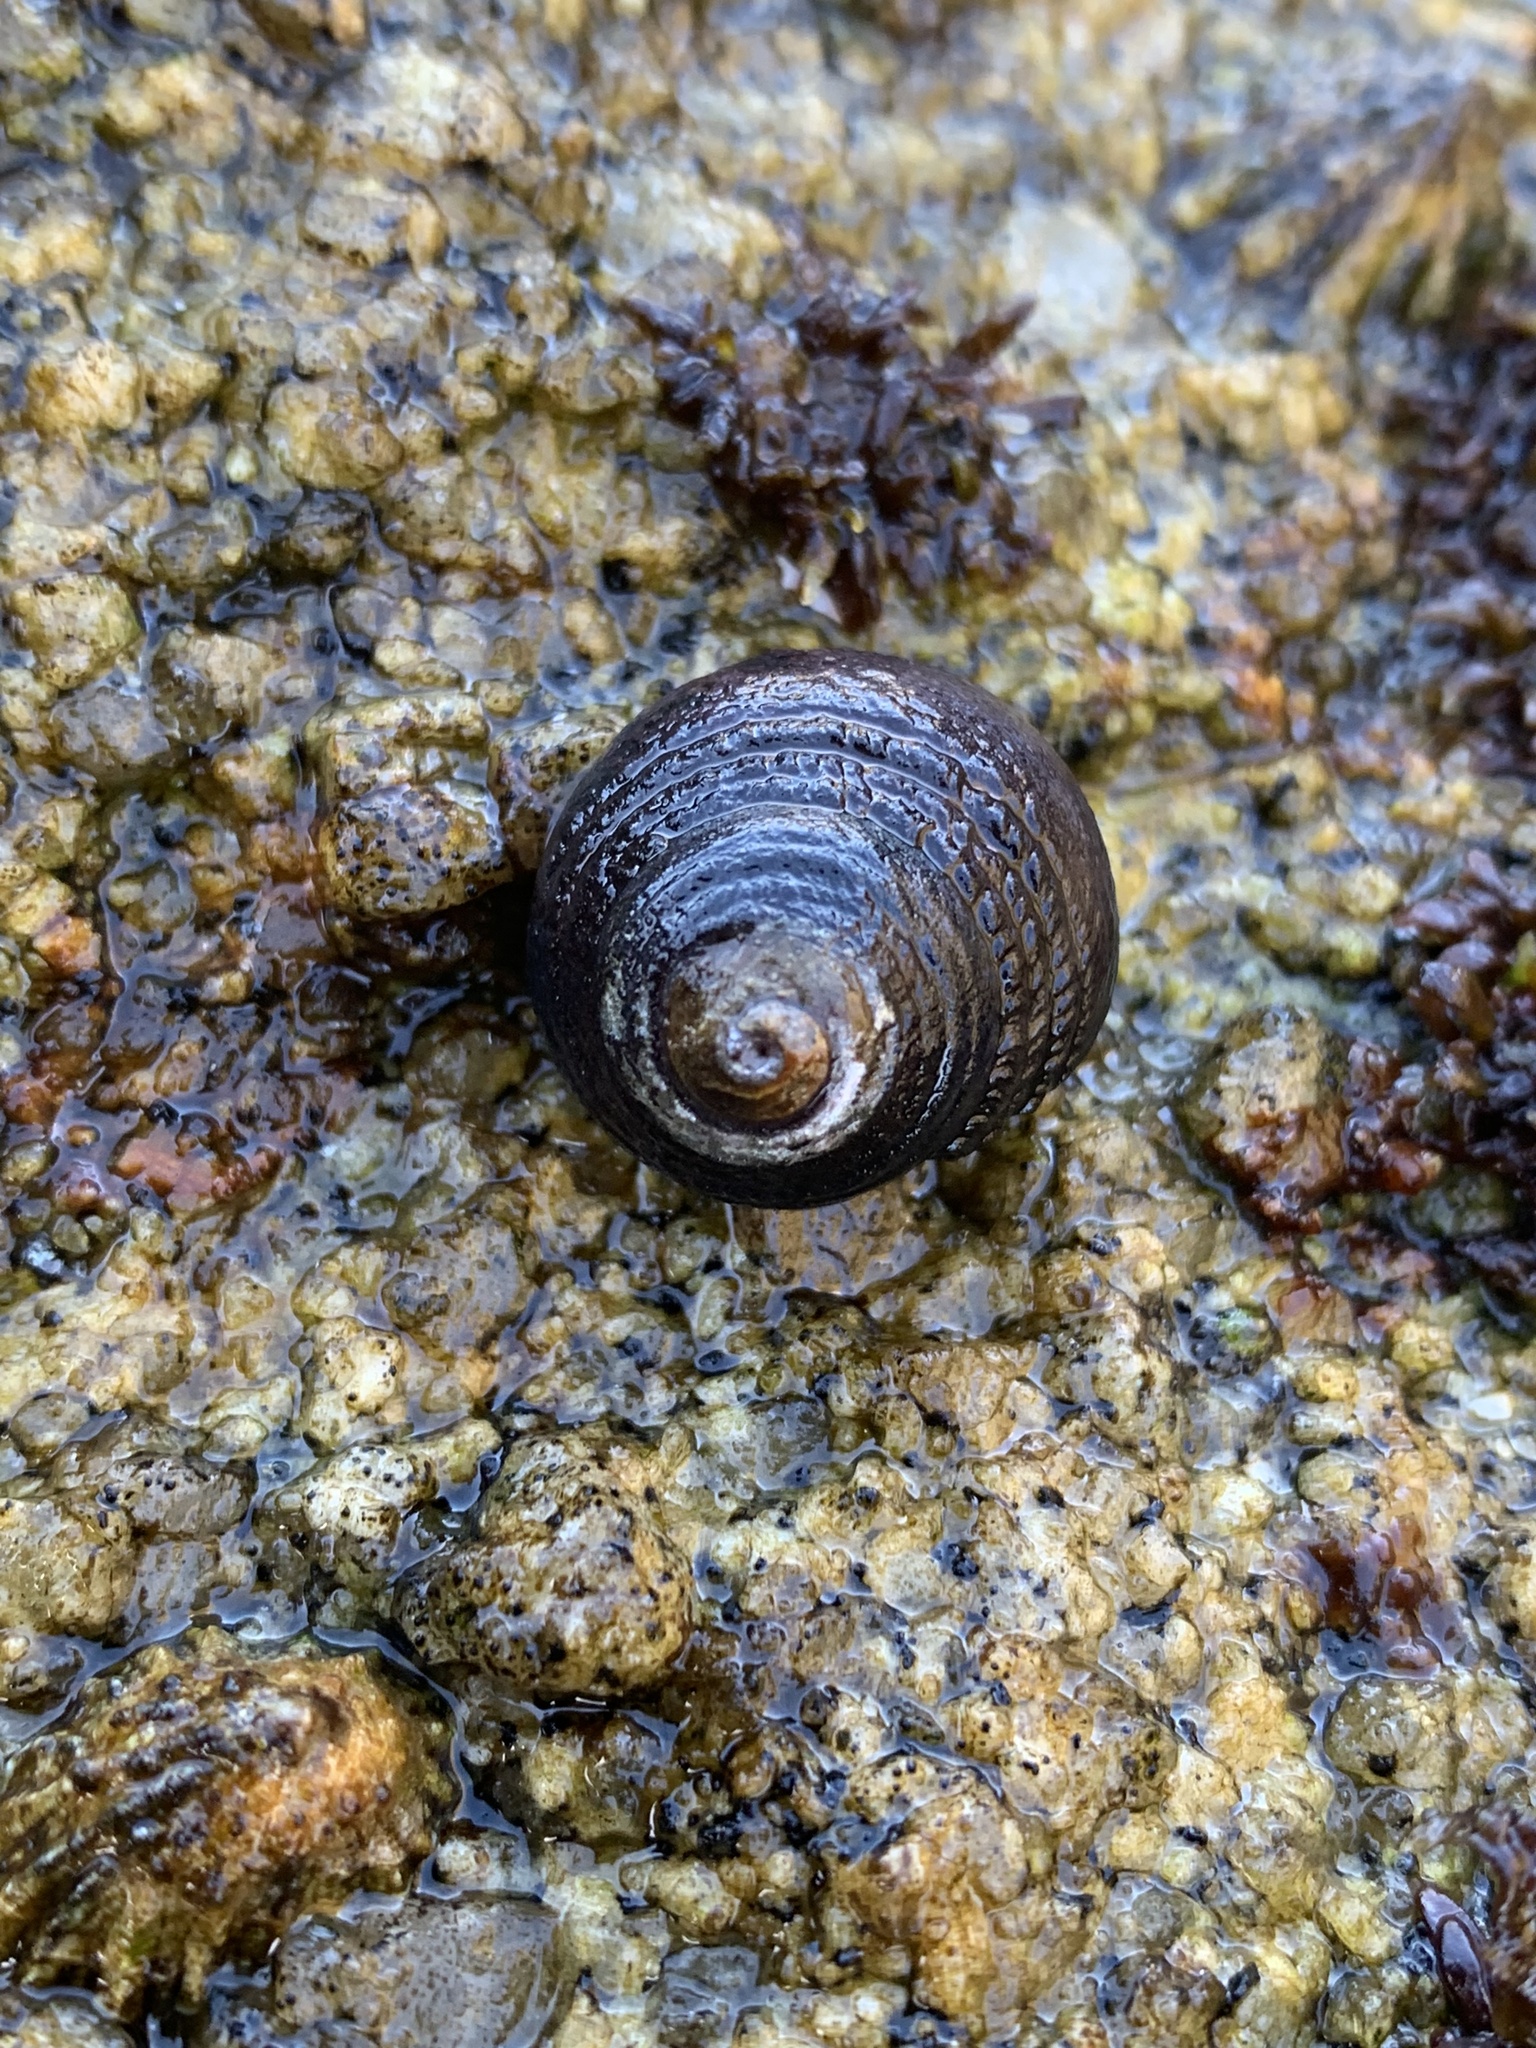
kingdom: Animalia
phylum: Mollusca
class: Gastropoda
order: Trochida
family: Tegulidae
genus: Tegula
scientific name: Tegula funebralis
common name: Black tegula
